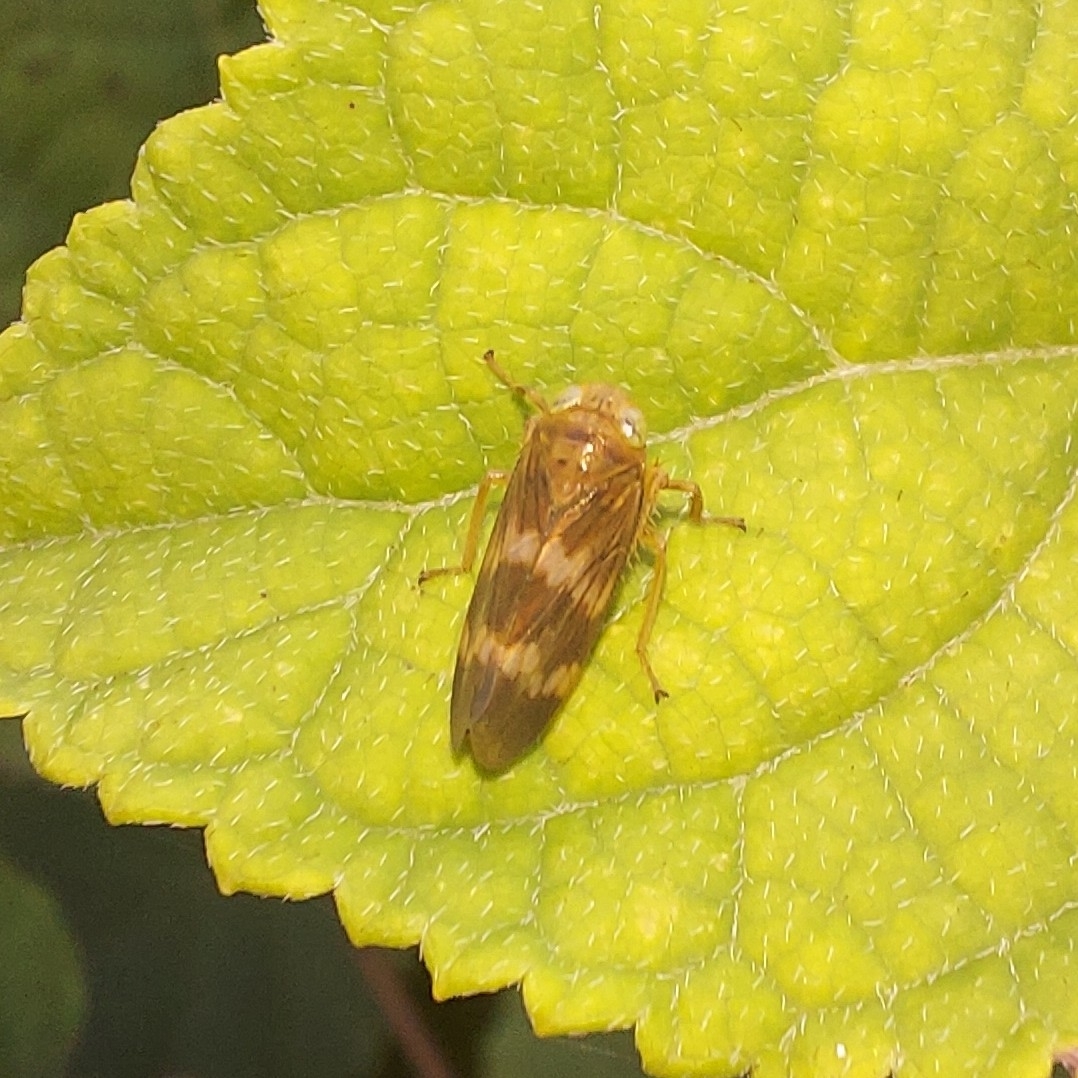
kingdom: Animalia
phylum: Arthropoda
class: Insecta
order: Hemiptera
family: Cicadellidae
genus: Jikradia
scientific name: Jikradia olitoria
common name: Coppery leafhopper
